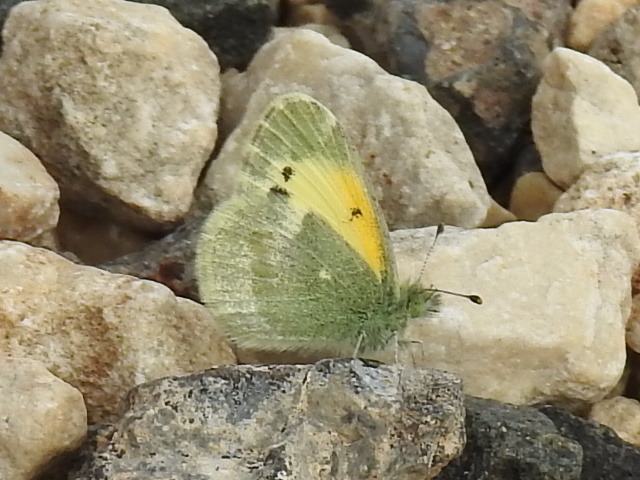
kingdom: Animalia
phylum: Arthropoda
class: Insecta
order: Lepidoptera
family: Pieridae
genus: Nathalis
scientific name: Nathalis iole
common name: Dainty sulphur
